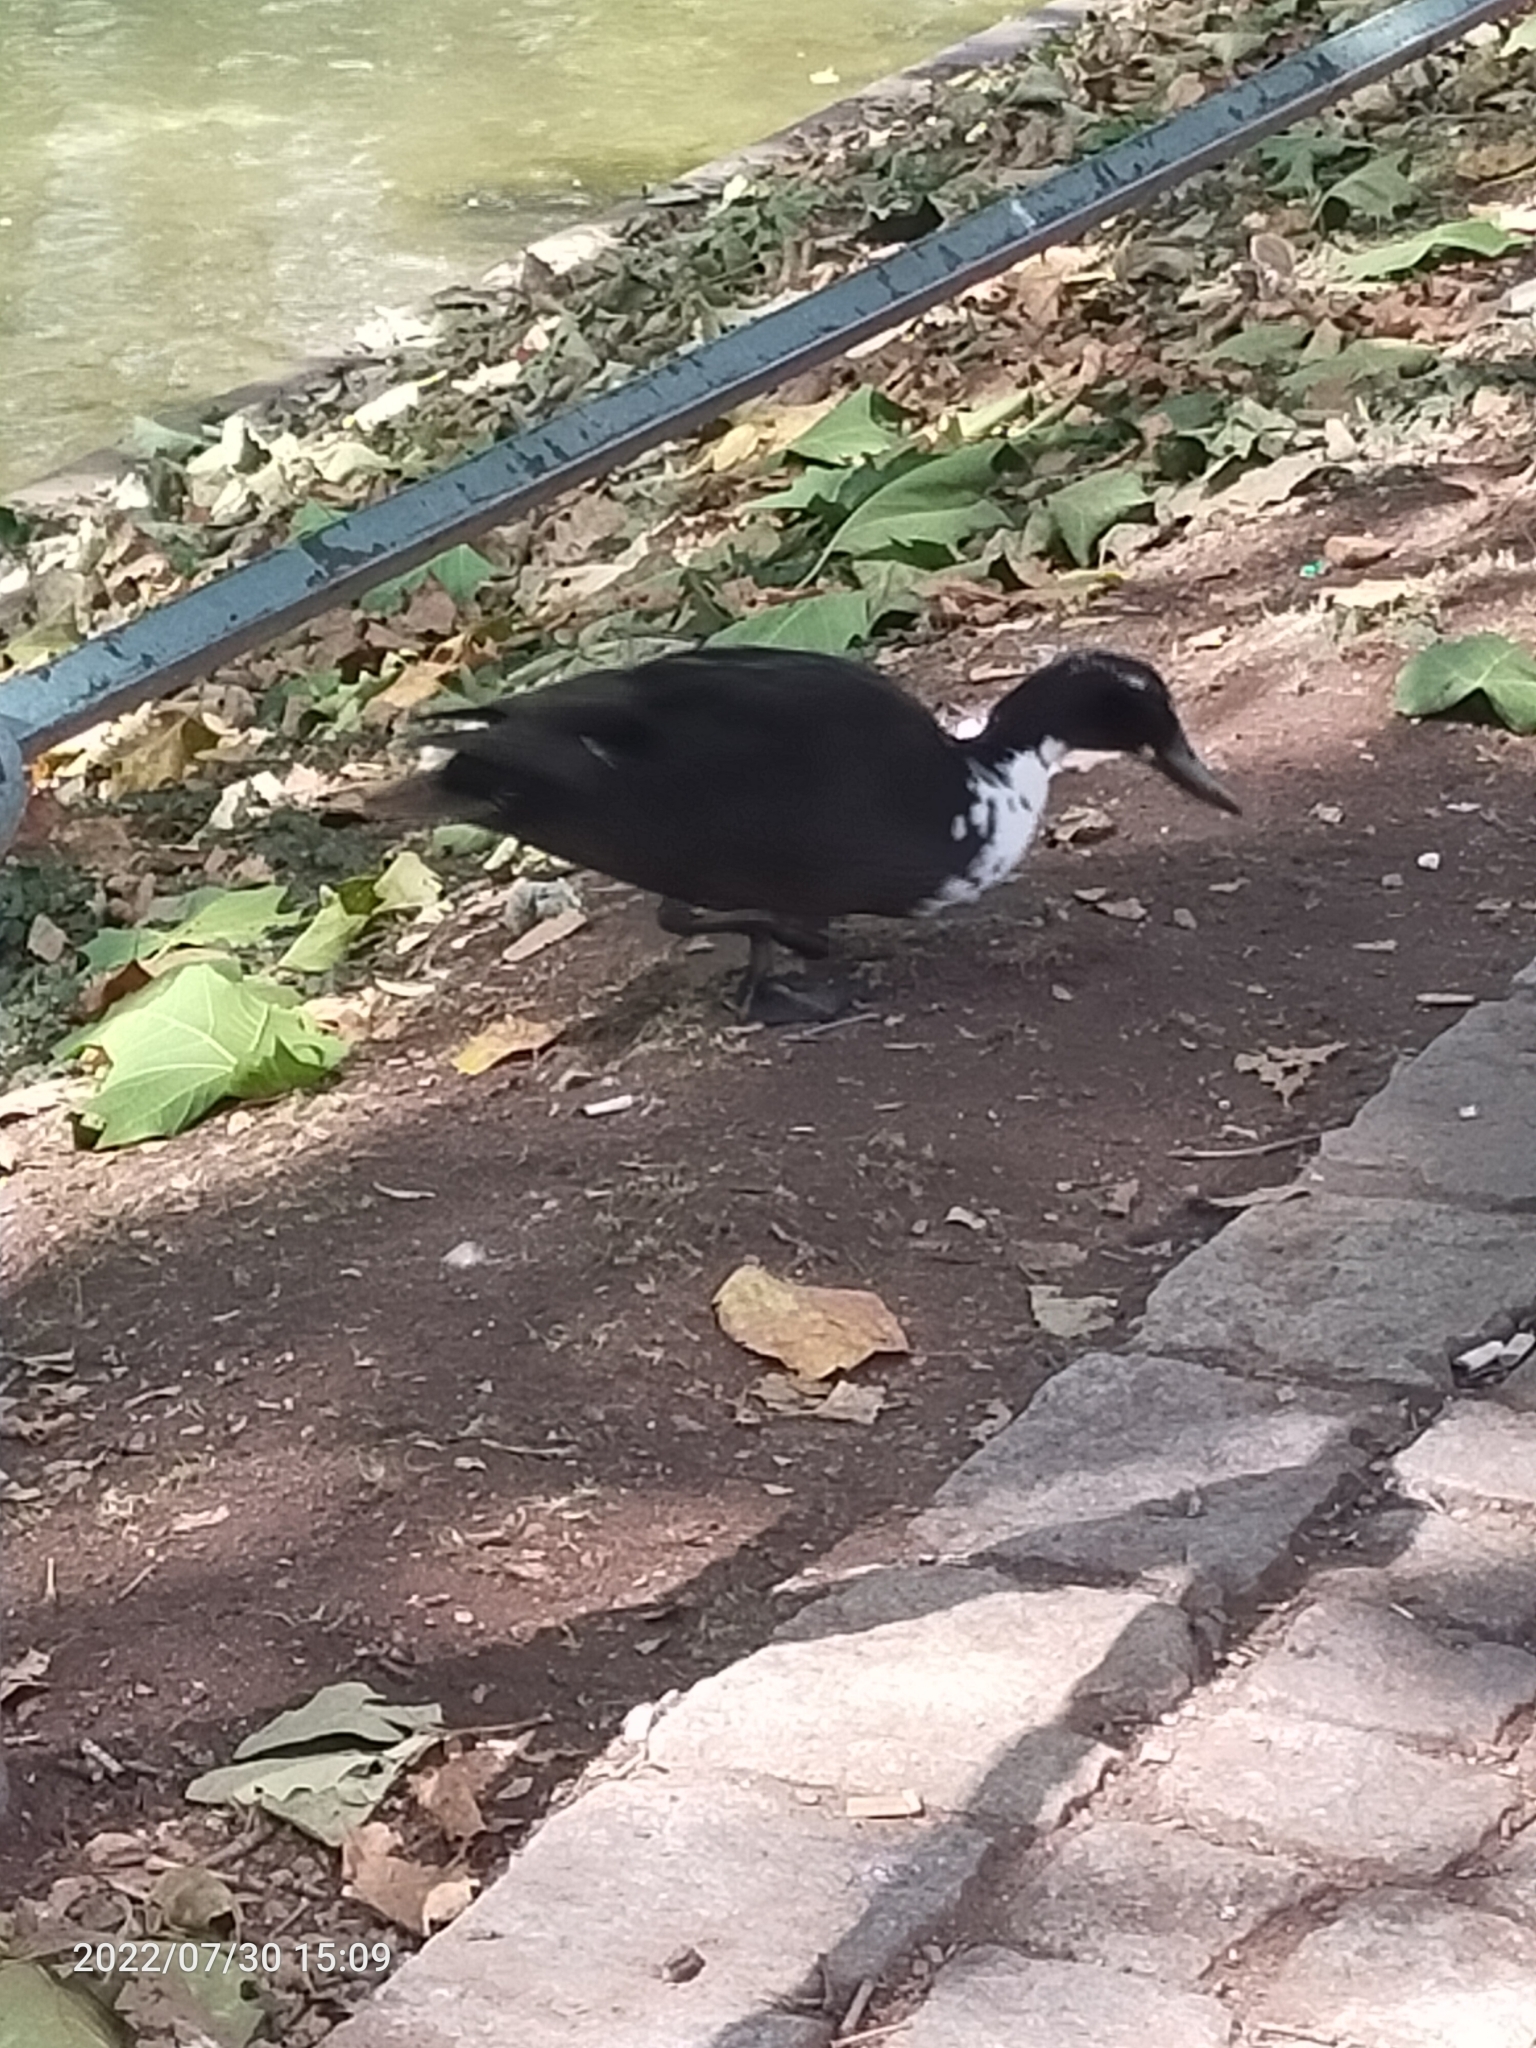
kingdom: Animalia
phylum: Chordata
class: Aves
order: Anseriformes
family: Anatidae
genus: Anas
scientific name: Anas platyrhynchos
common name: Mallard
